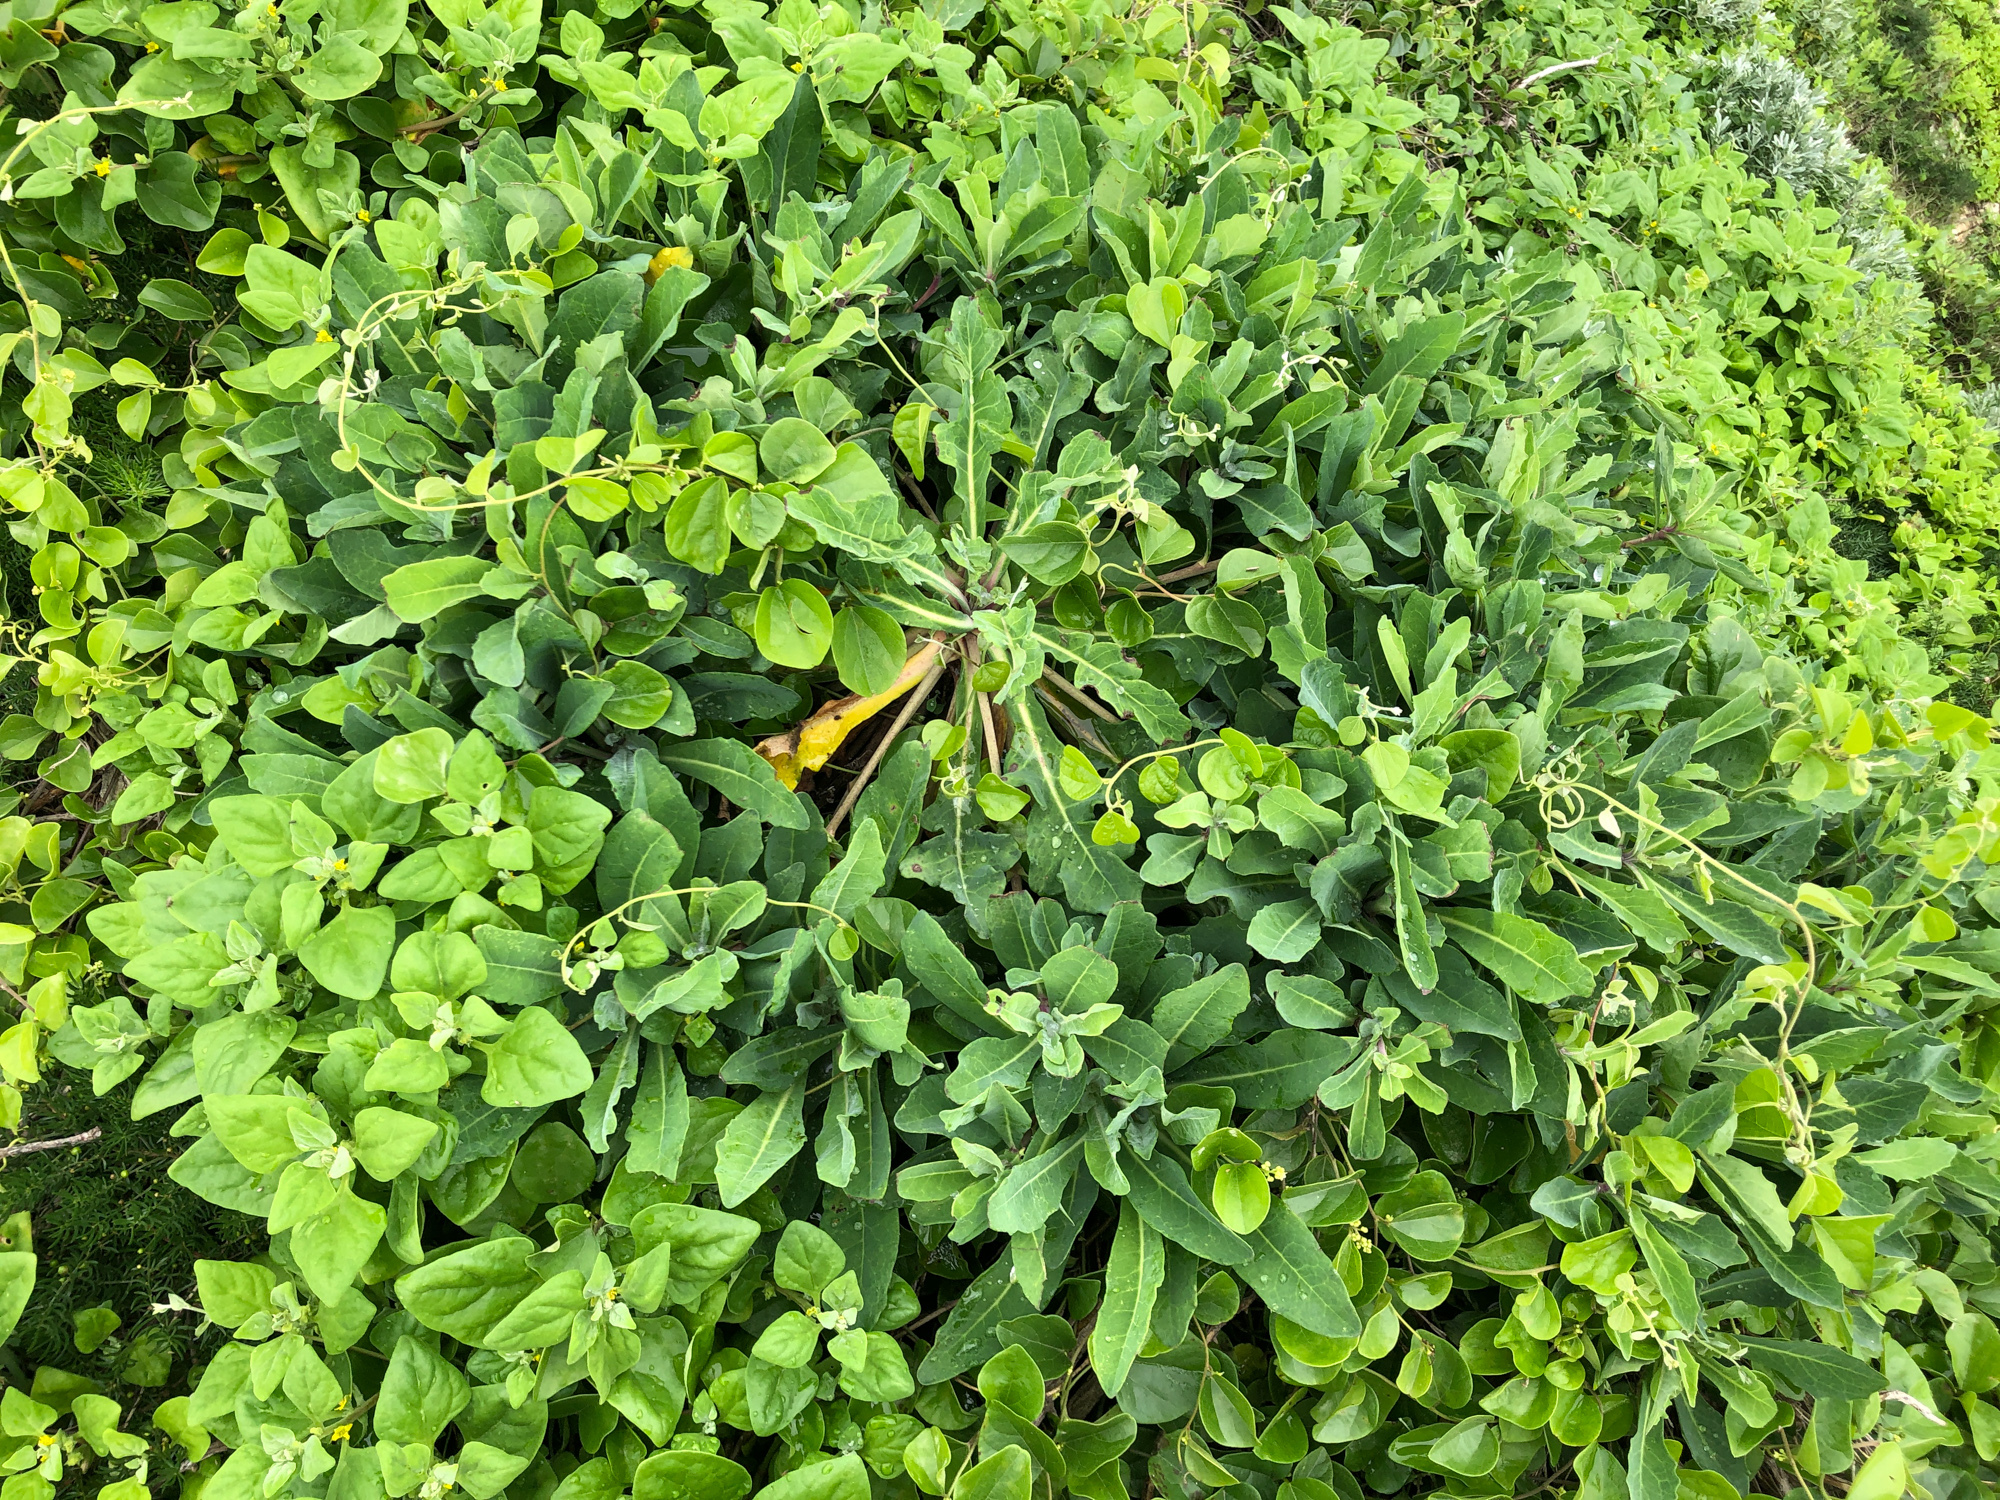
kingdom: Plantae
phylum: Tracheophyta
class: Magnoliopsida
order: Asterales
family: Asteraceae
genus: Crepidiastrum
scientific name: Crepidiastrum lanceolatum
